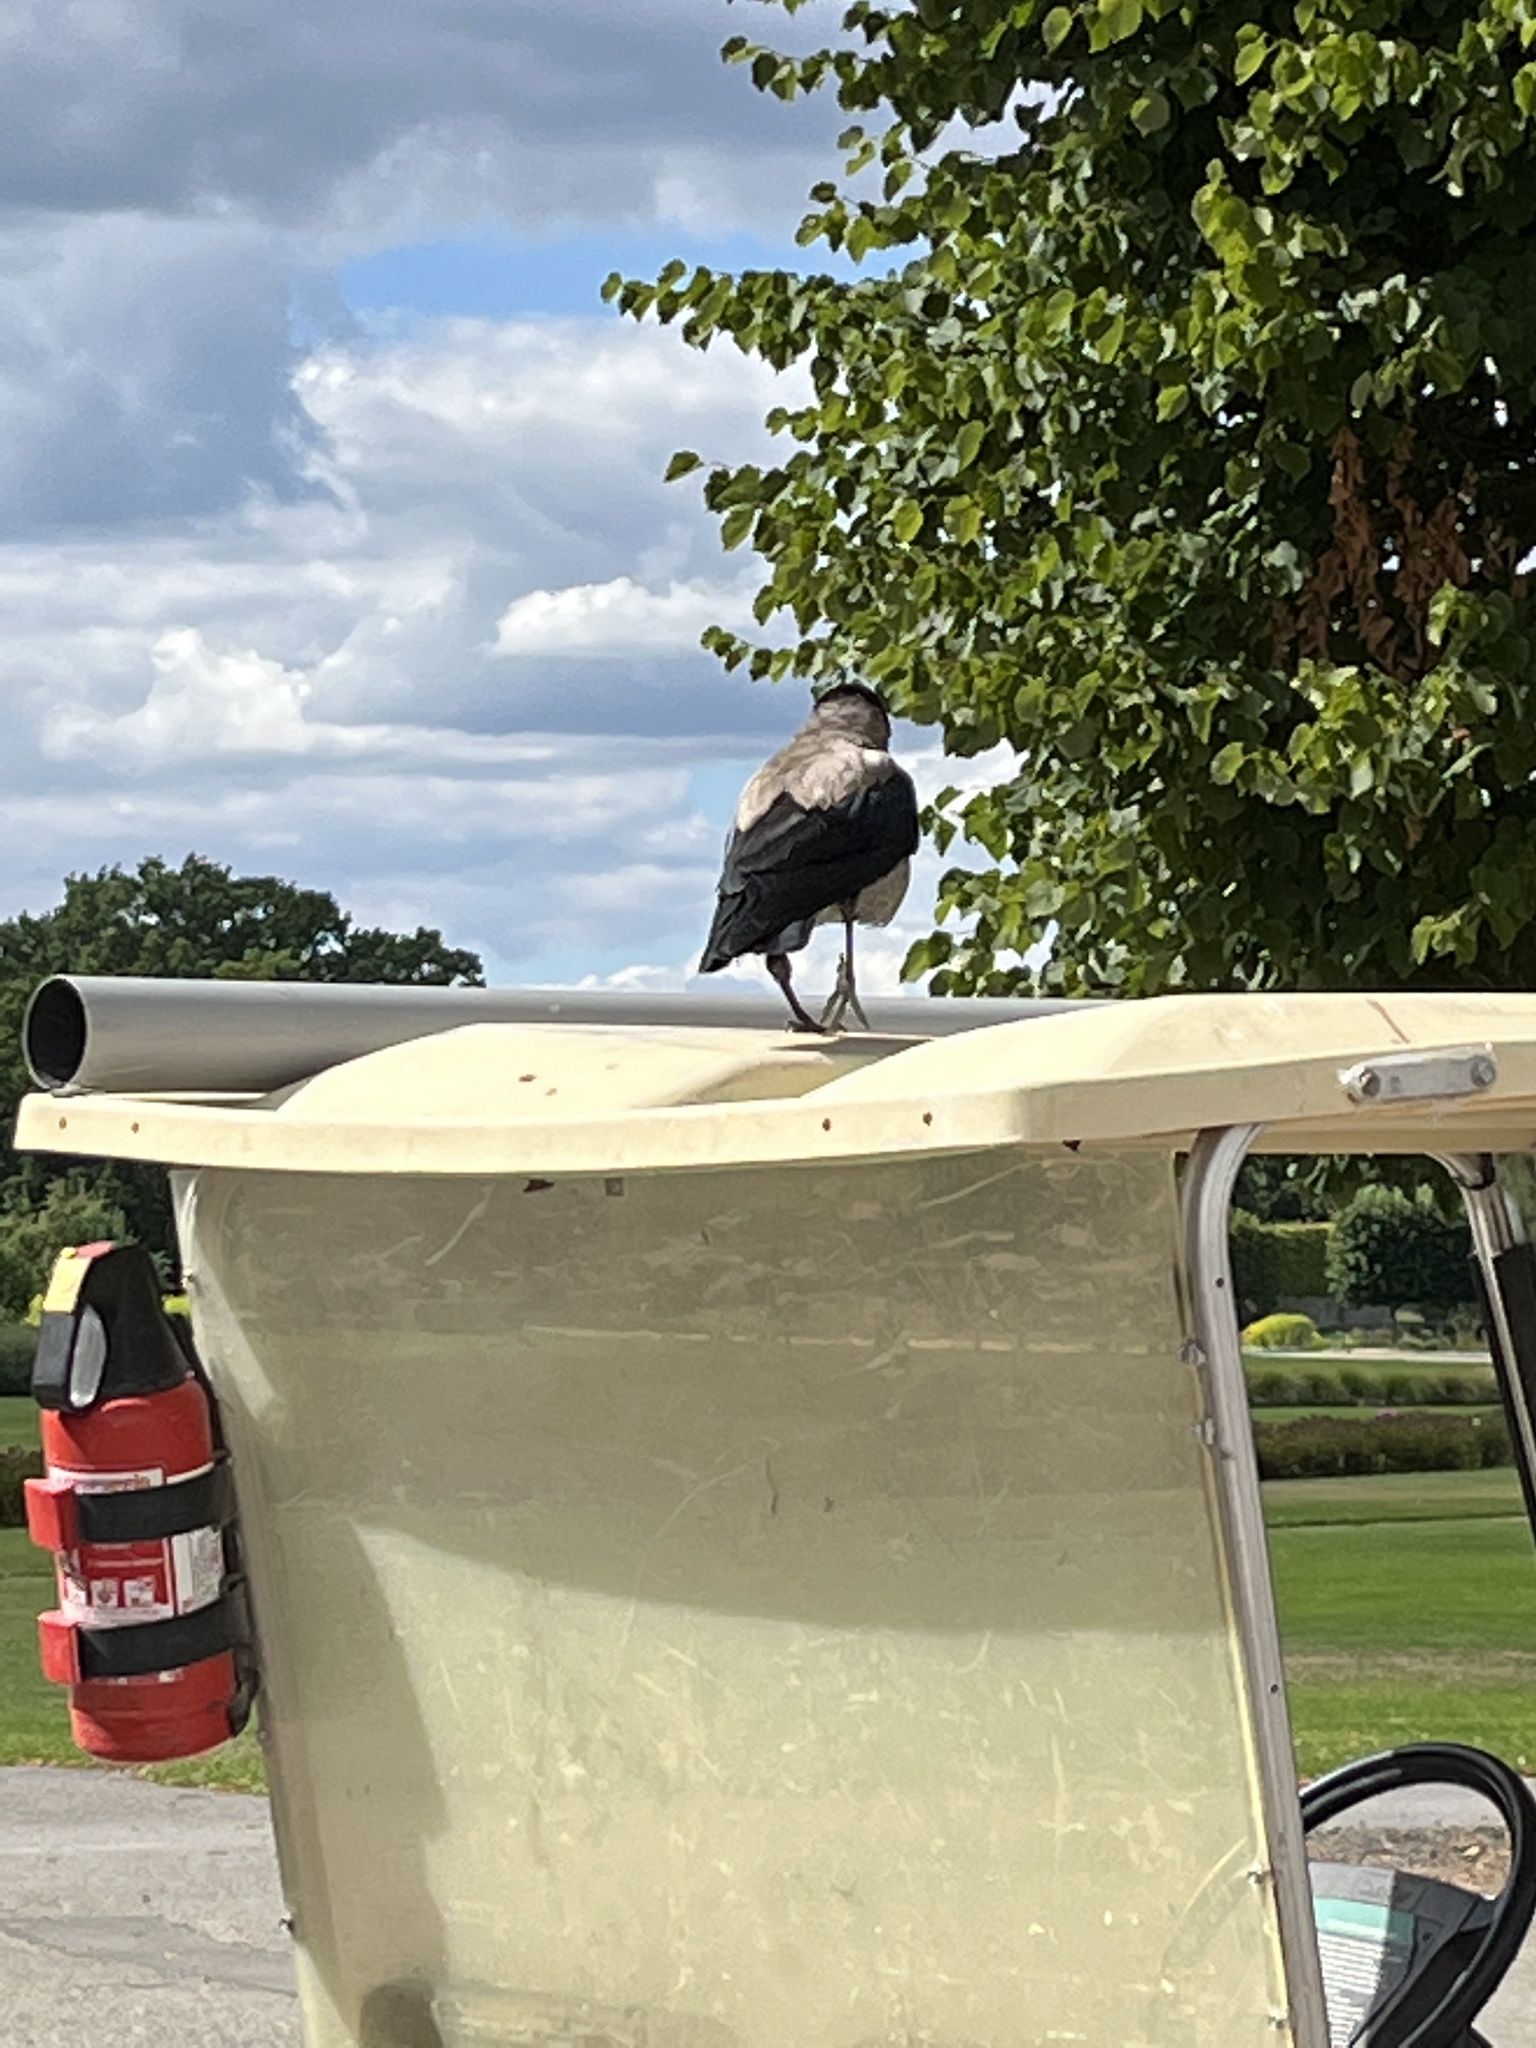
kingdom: Animalia
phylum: Chordata
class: Aves
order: Passeriformes
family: Corvidae
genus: Corvus
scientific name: Corvus cornix
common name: Hooded crow
